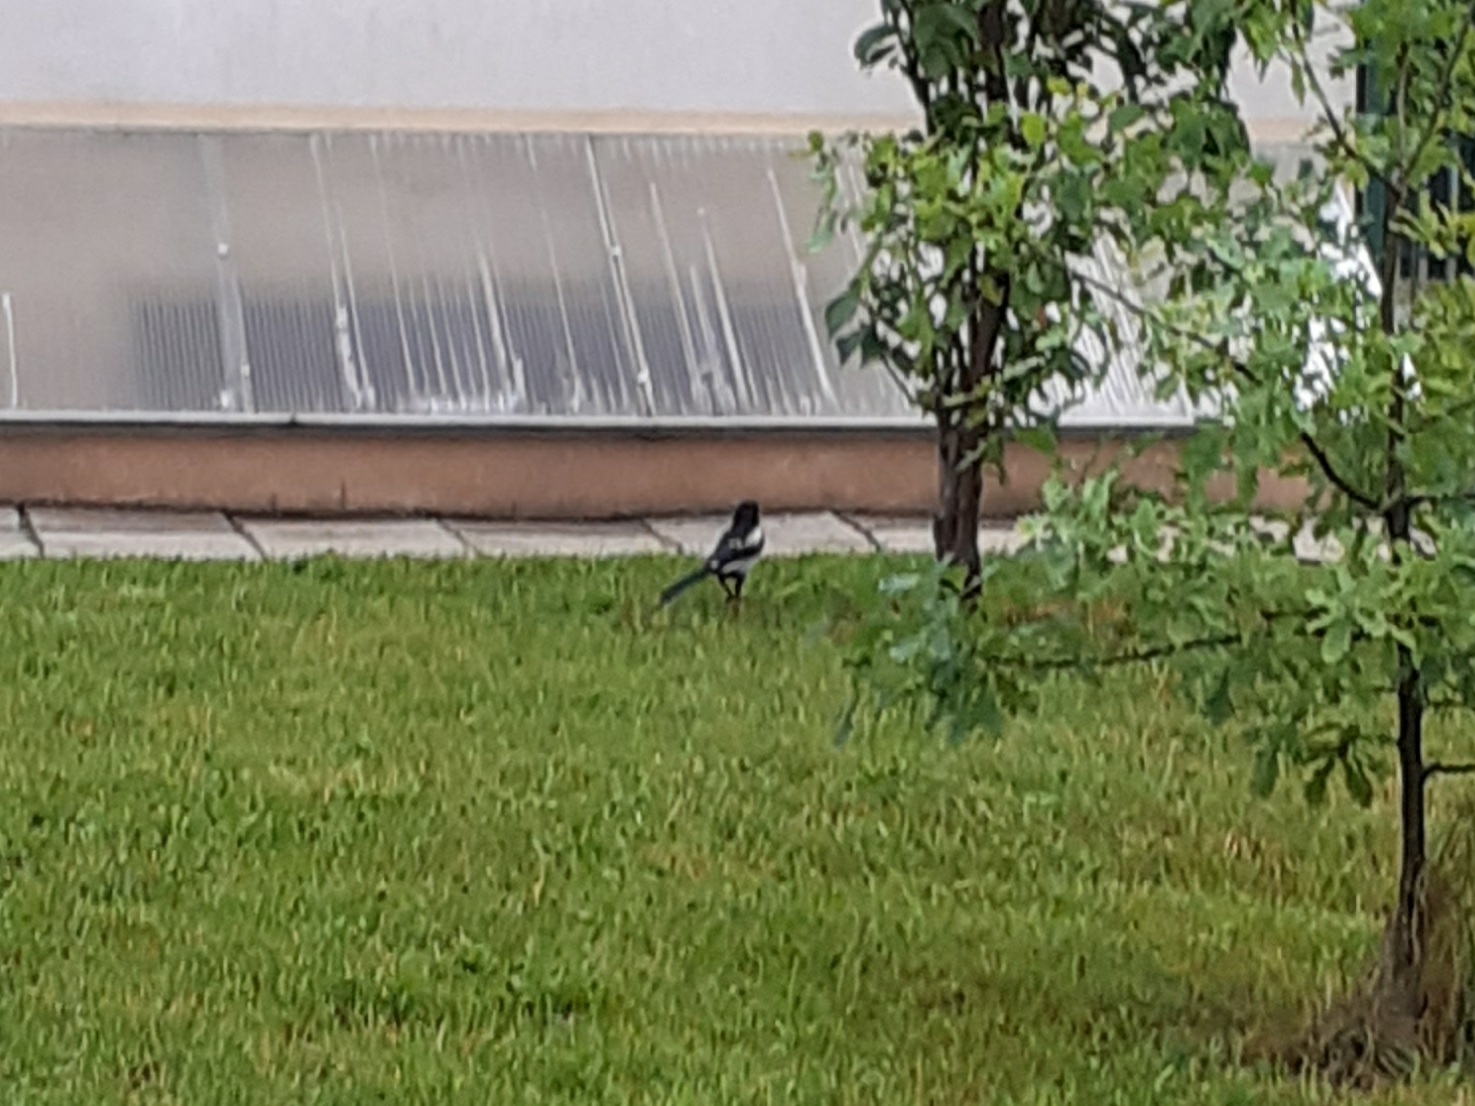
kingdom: Animalia
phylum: Chordata
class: Aves
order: Passeriformes
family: Corvidae
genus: Pica
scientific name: Pica pica
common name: Eurasian magpie
